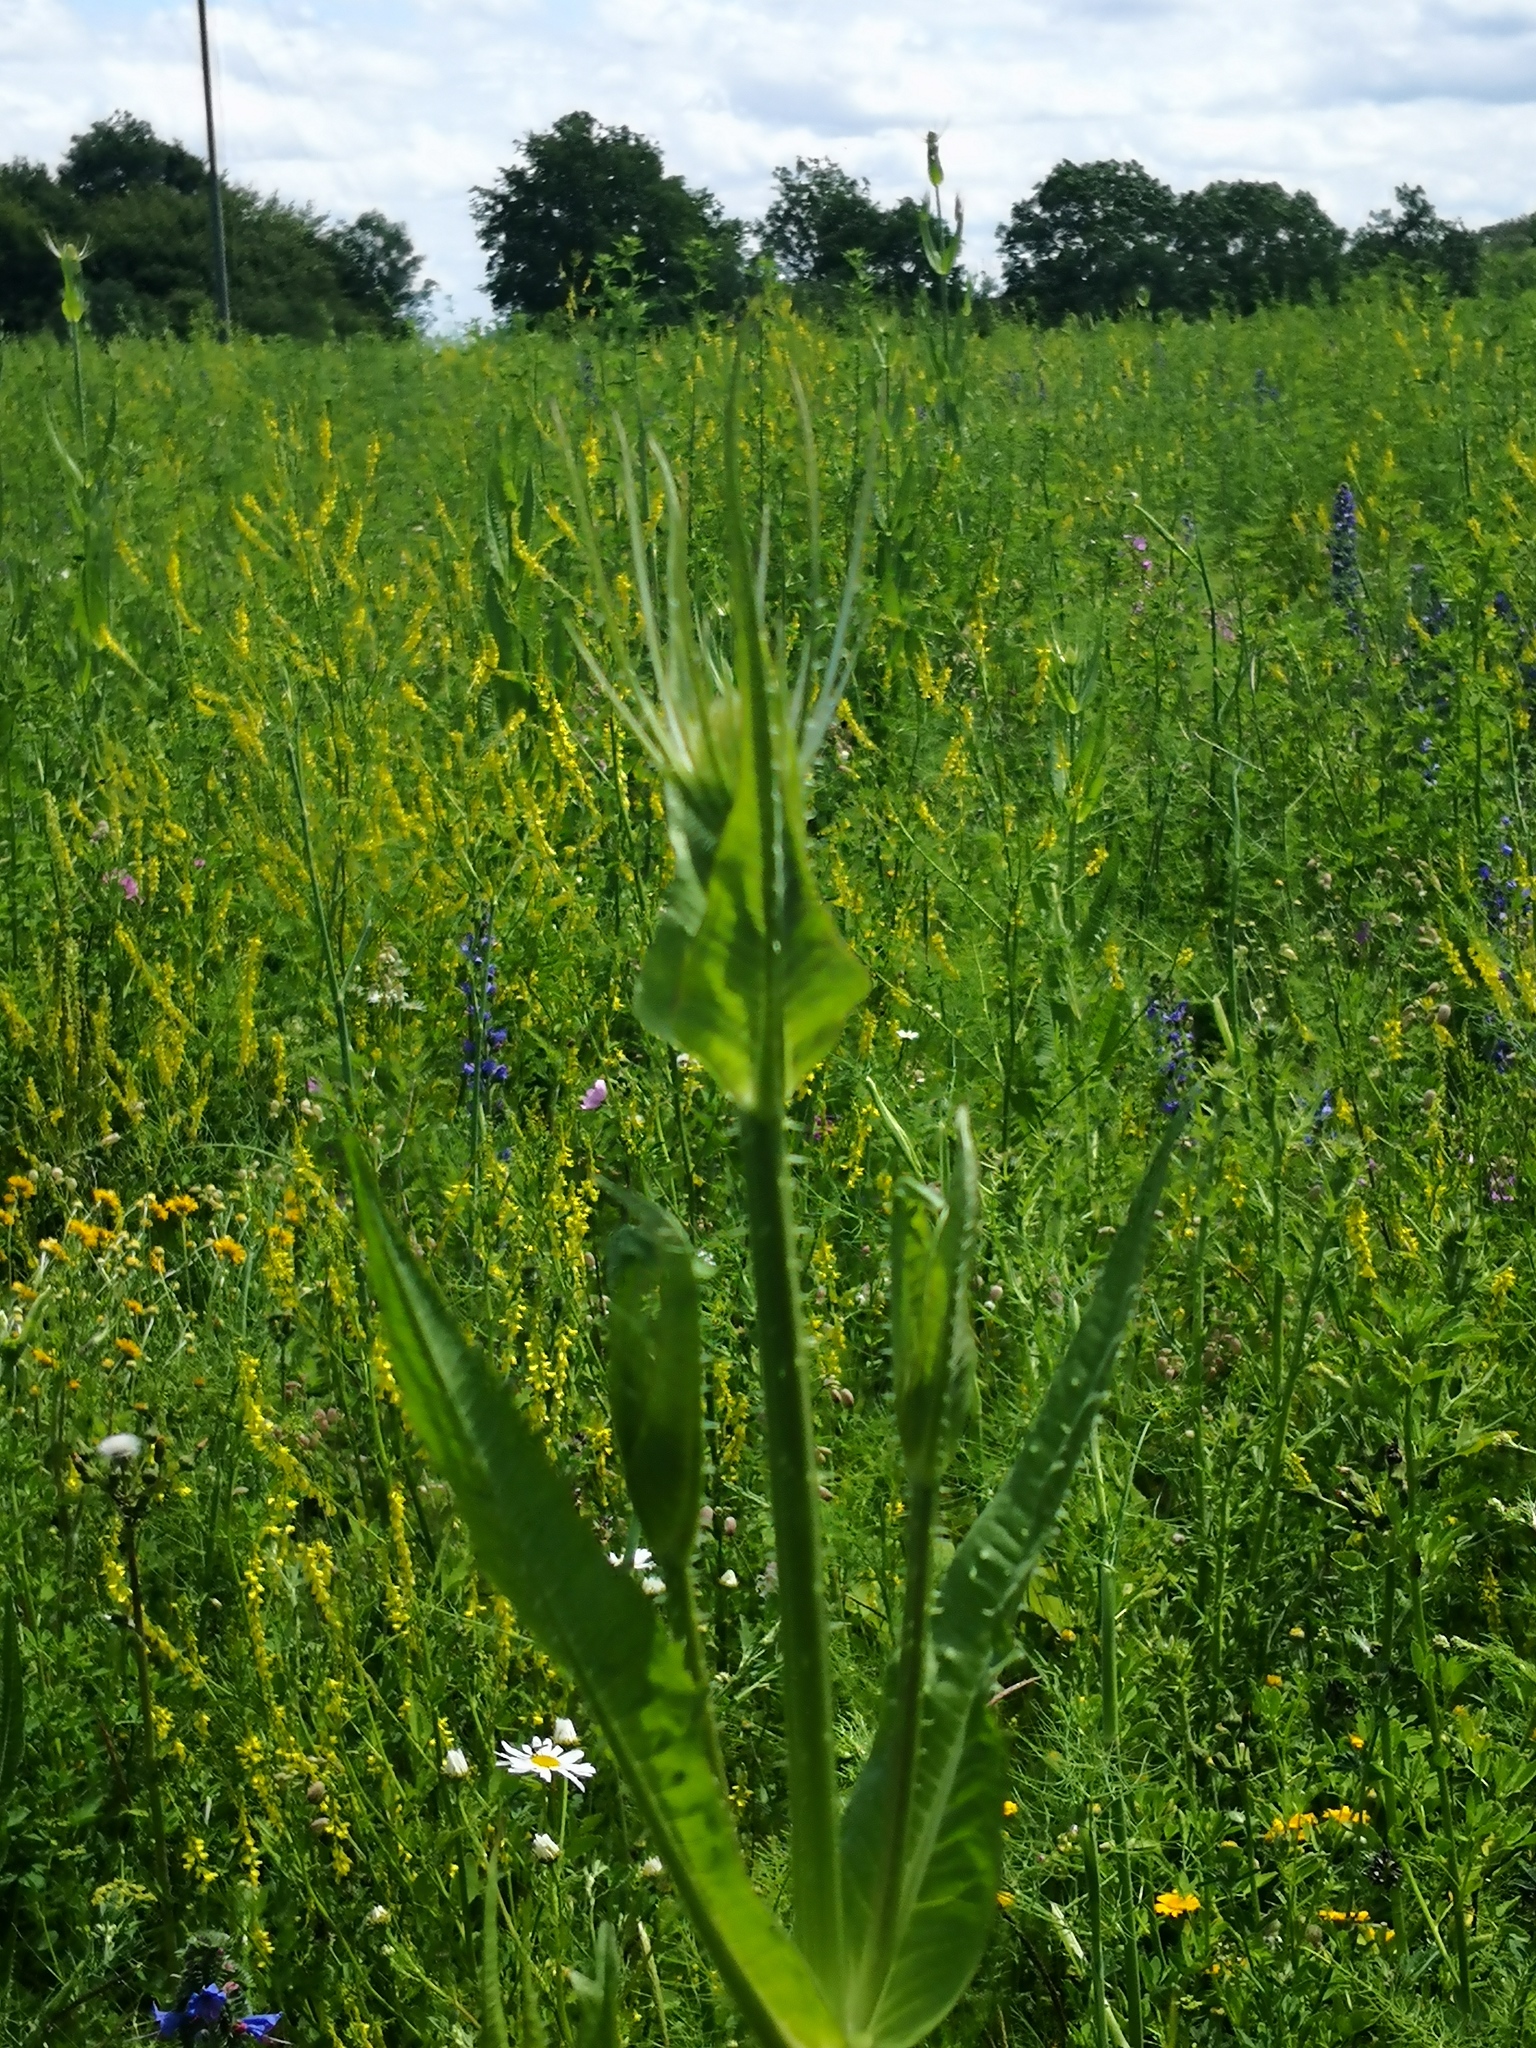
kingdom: Plantae
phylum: Tracheophyta
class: Magnoliopsida
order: Dipsacales
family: Caprifoliaceae
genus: Dipsacus
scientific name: Dipsacus fullonum
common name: Teasel
